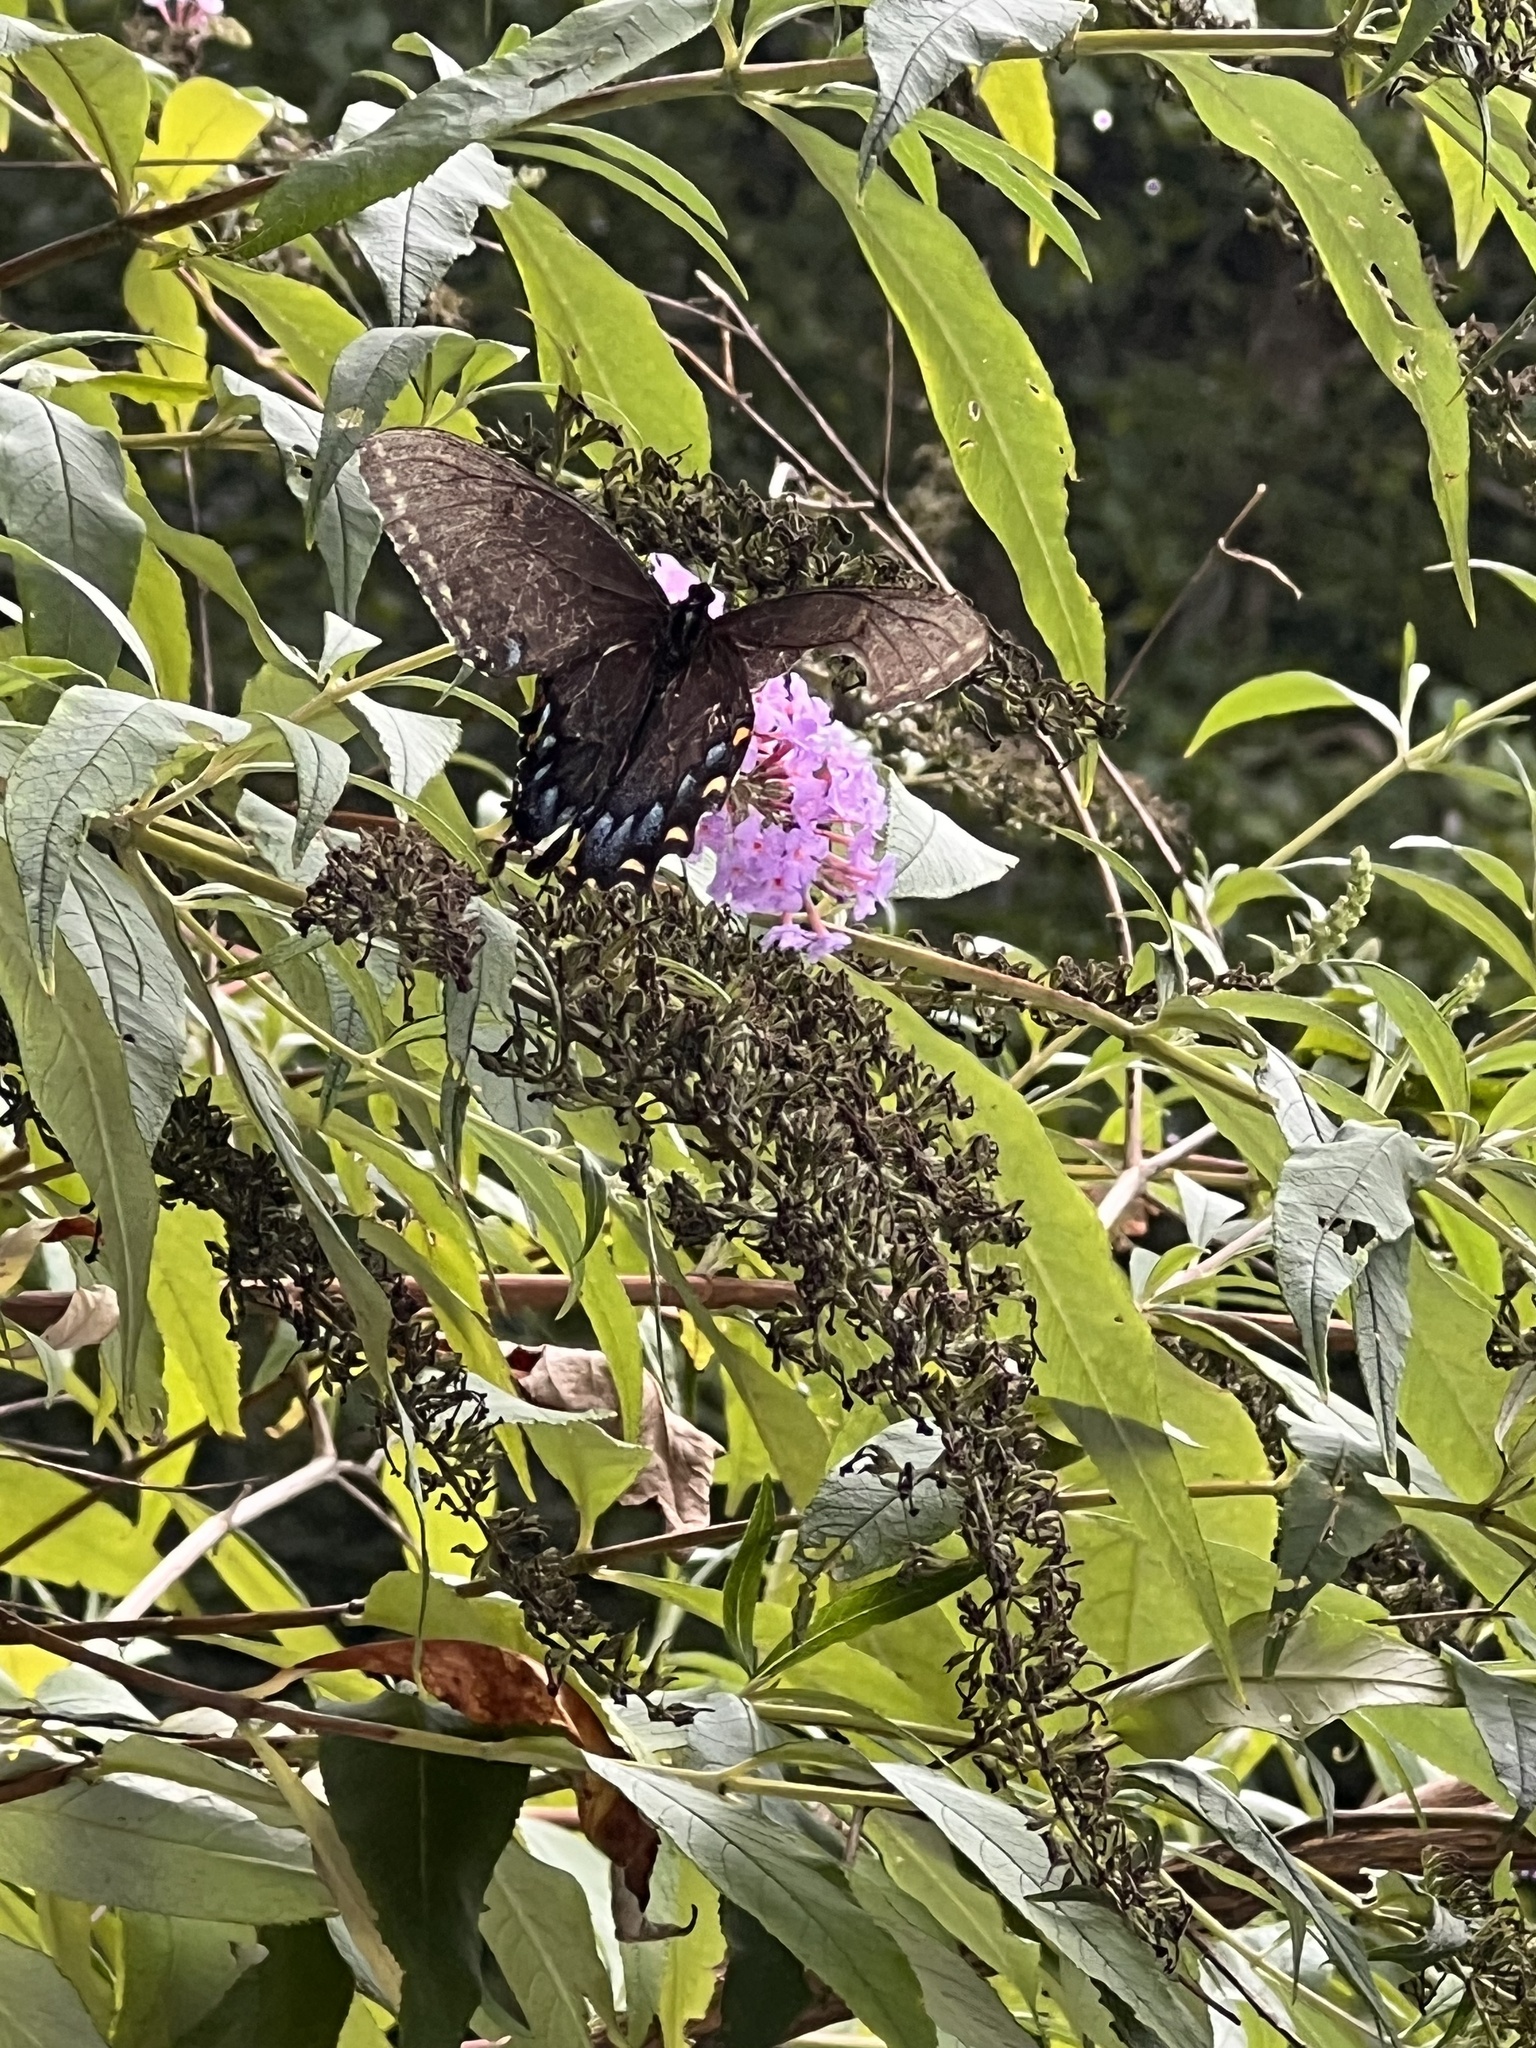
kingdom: Animalia
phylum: Arthropoda
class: Insecta
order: Lepidoptera
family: Papilionidae
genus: Papilio
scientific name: Papilio glaucus
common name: Tiger swallowtail
